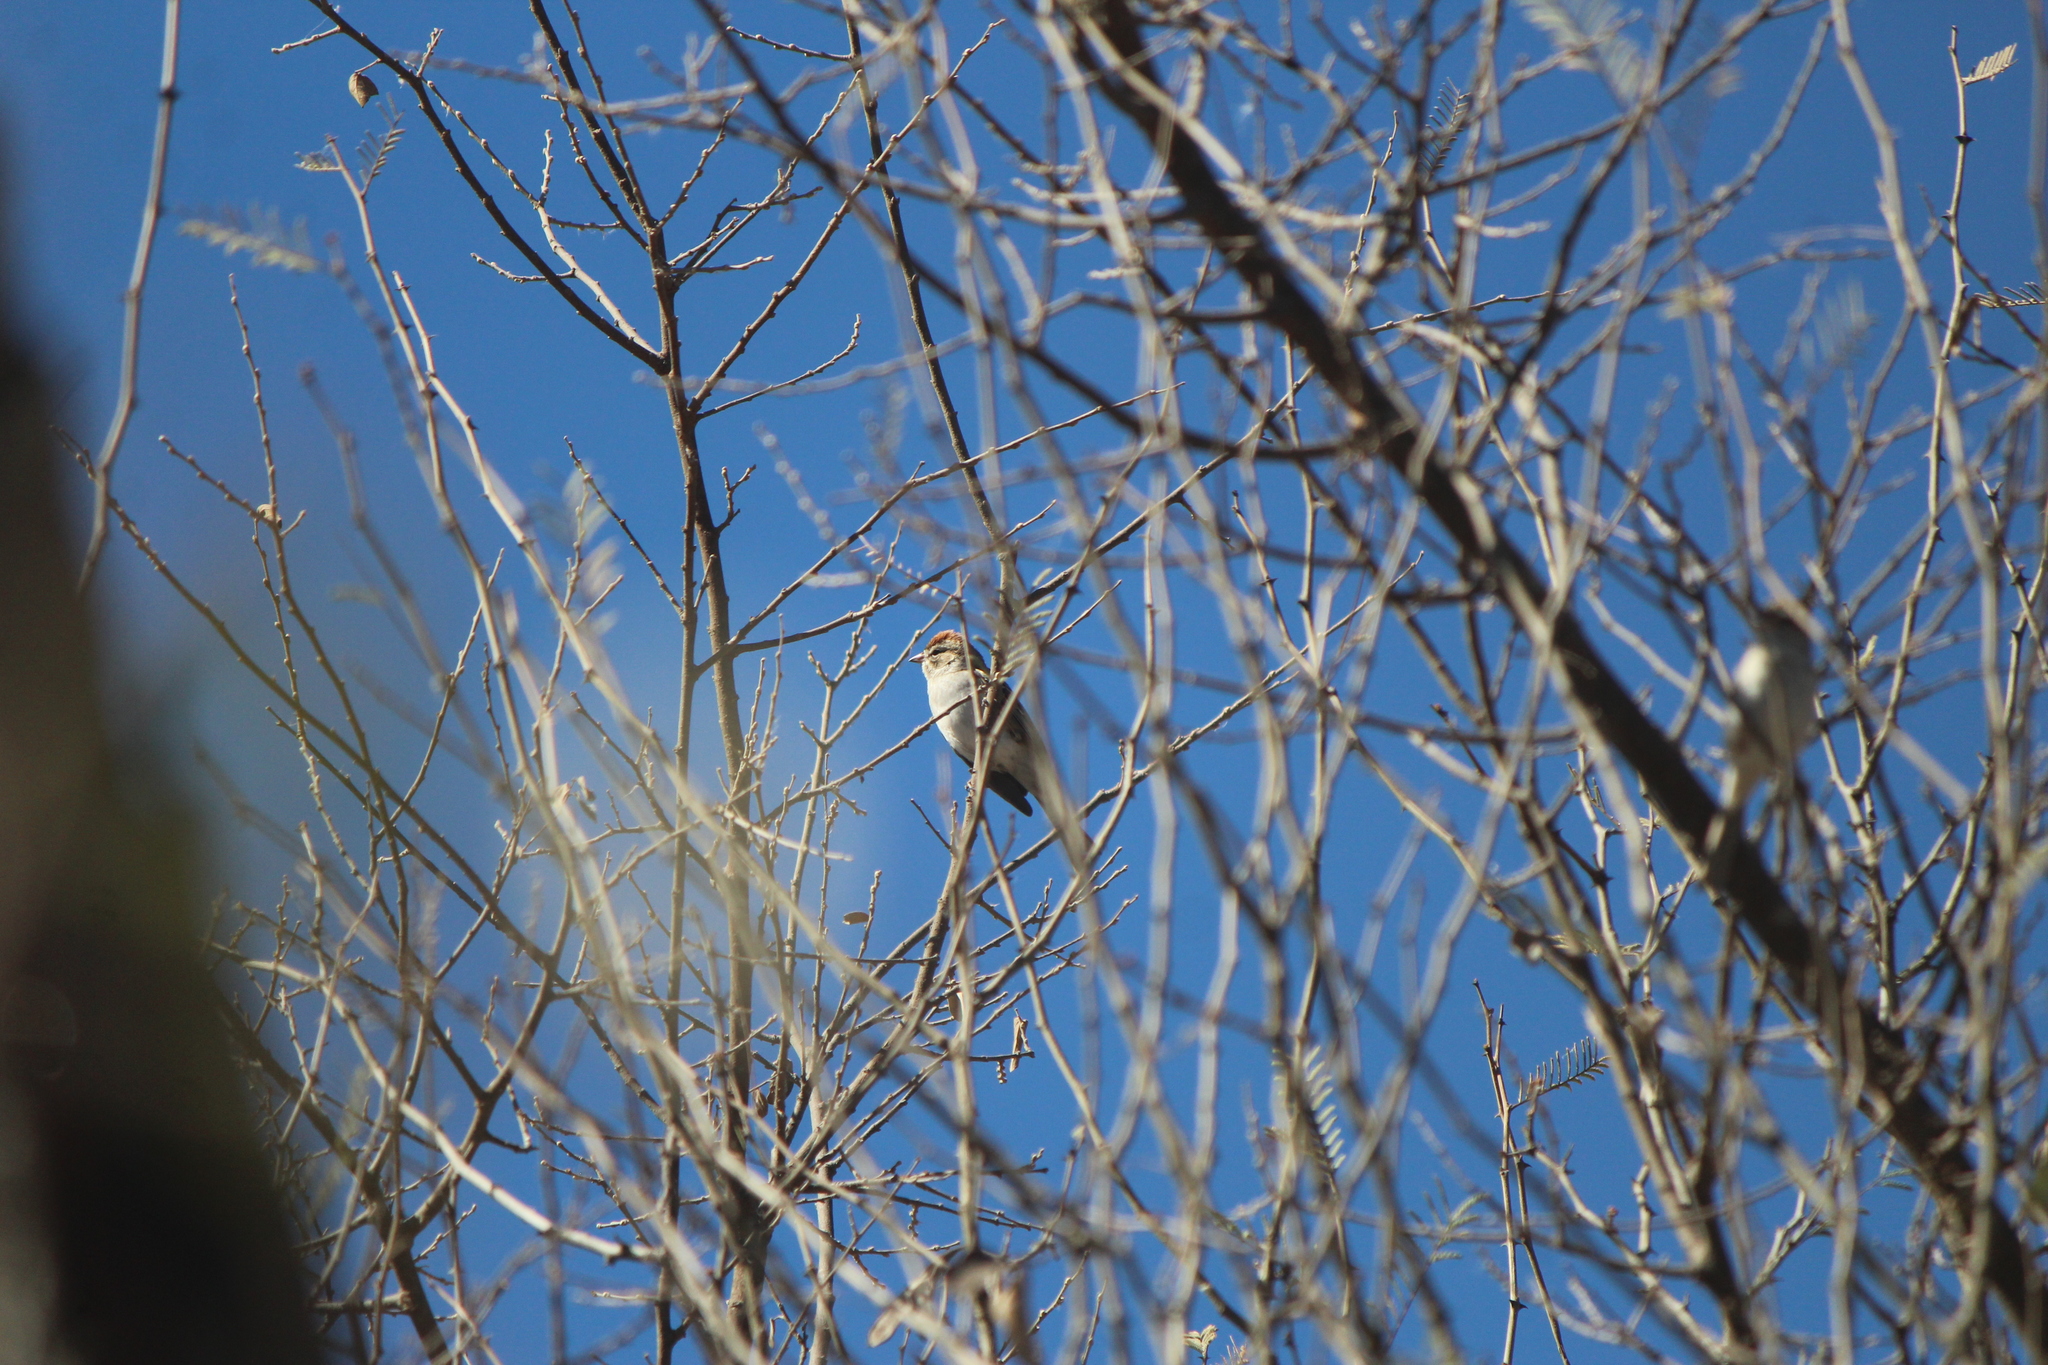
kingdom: Animalia
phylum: Chordata
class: Aves
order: Passeriformes
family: Passerellidae
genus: Spizella
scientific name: Spizella passerina
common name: Chipping sparrow
